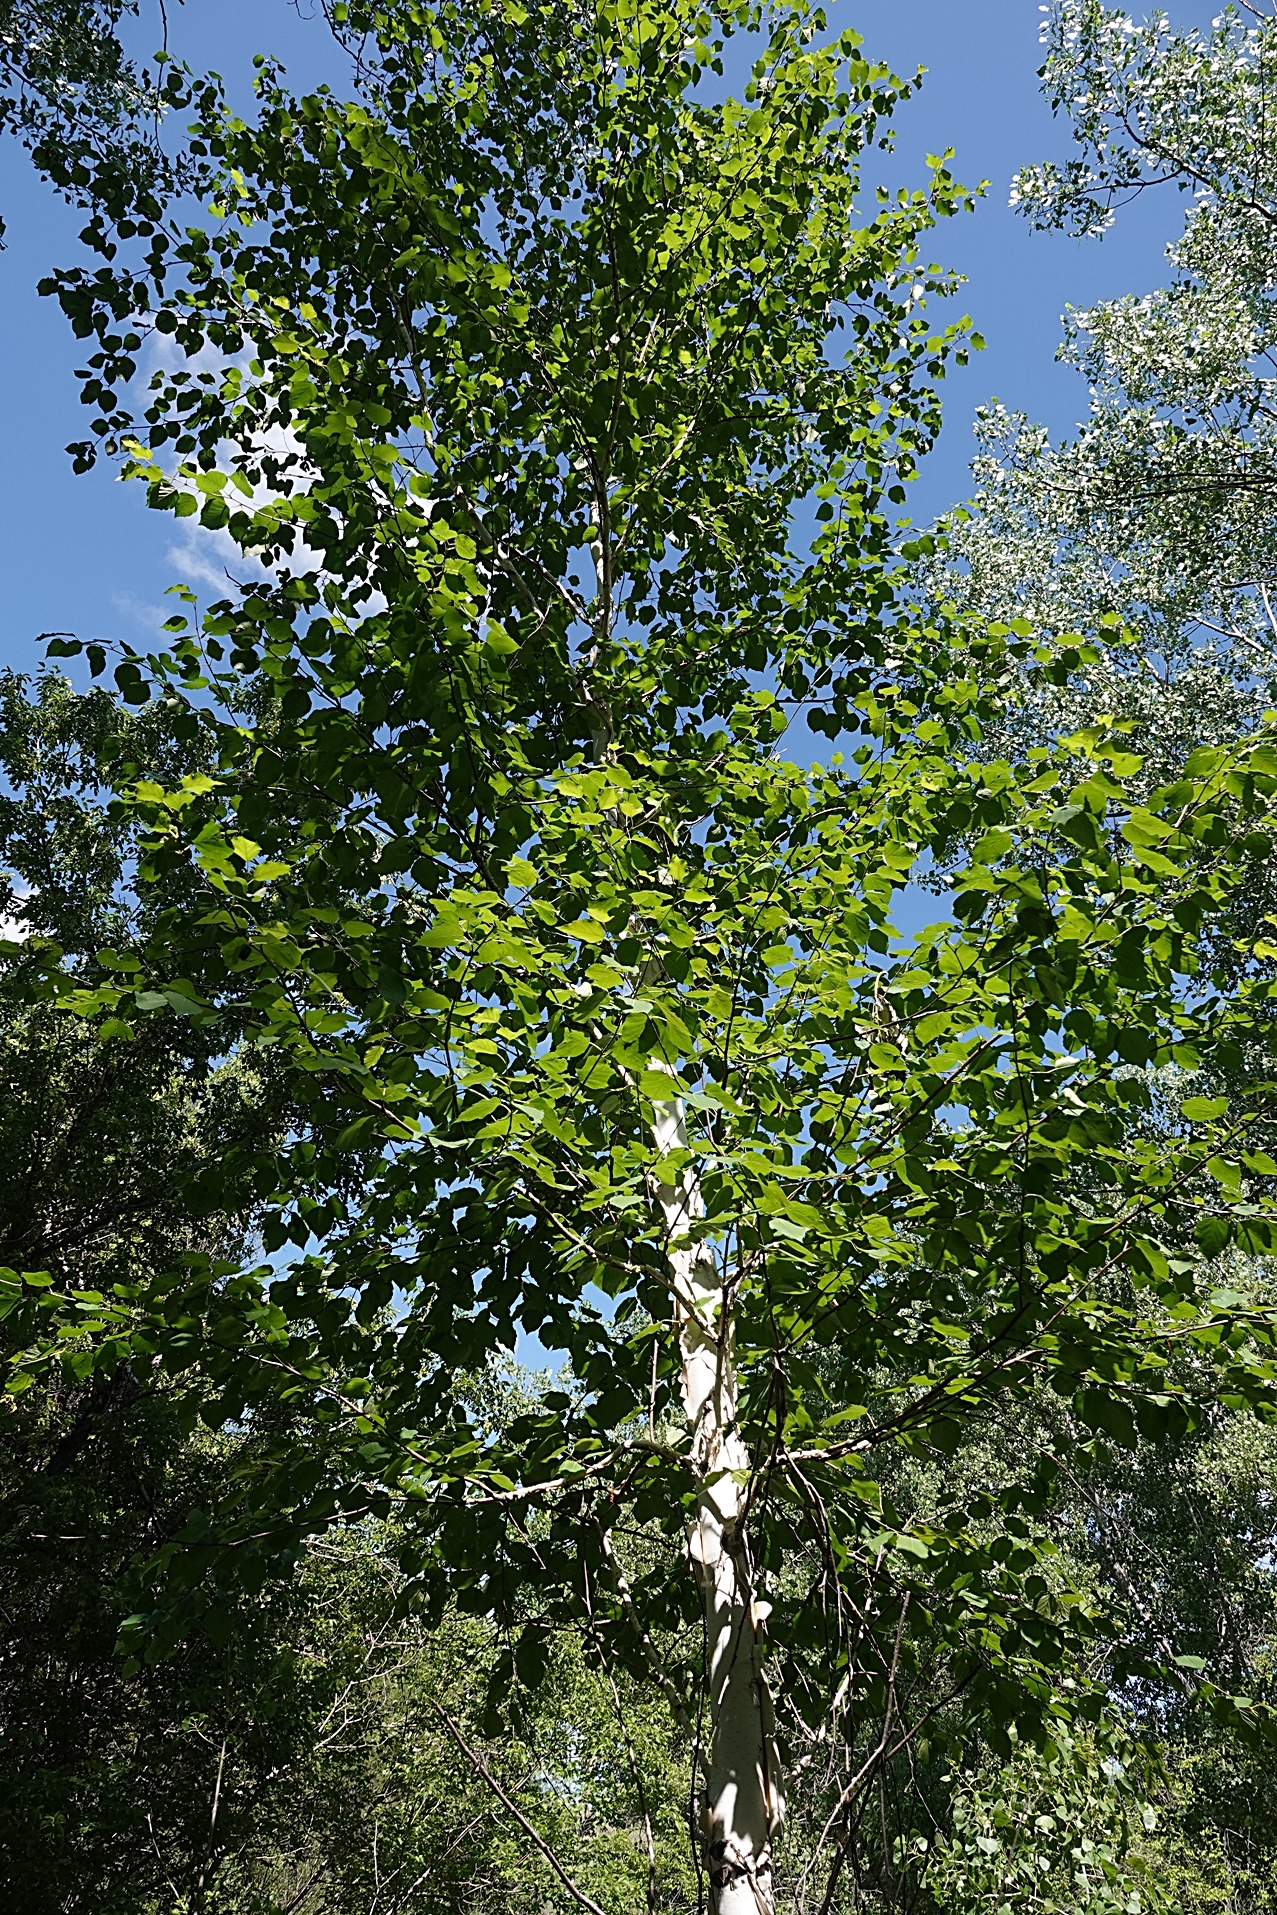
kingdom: Plantae
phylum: Tracheophyta
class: Magnoliopsida
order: Fagales
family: Betulaceae
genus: Betula
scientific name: Betula papyrifera
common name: Paper birch
